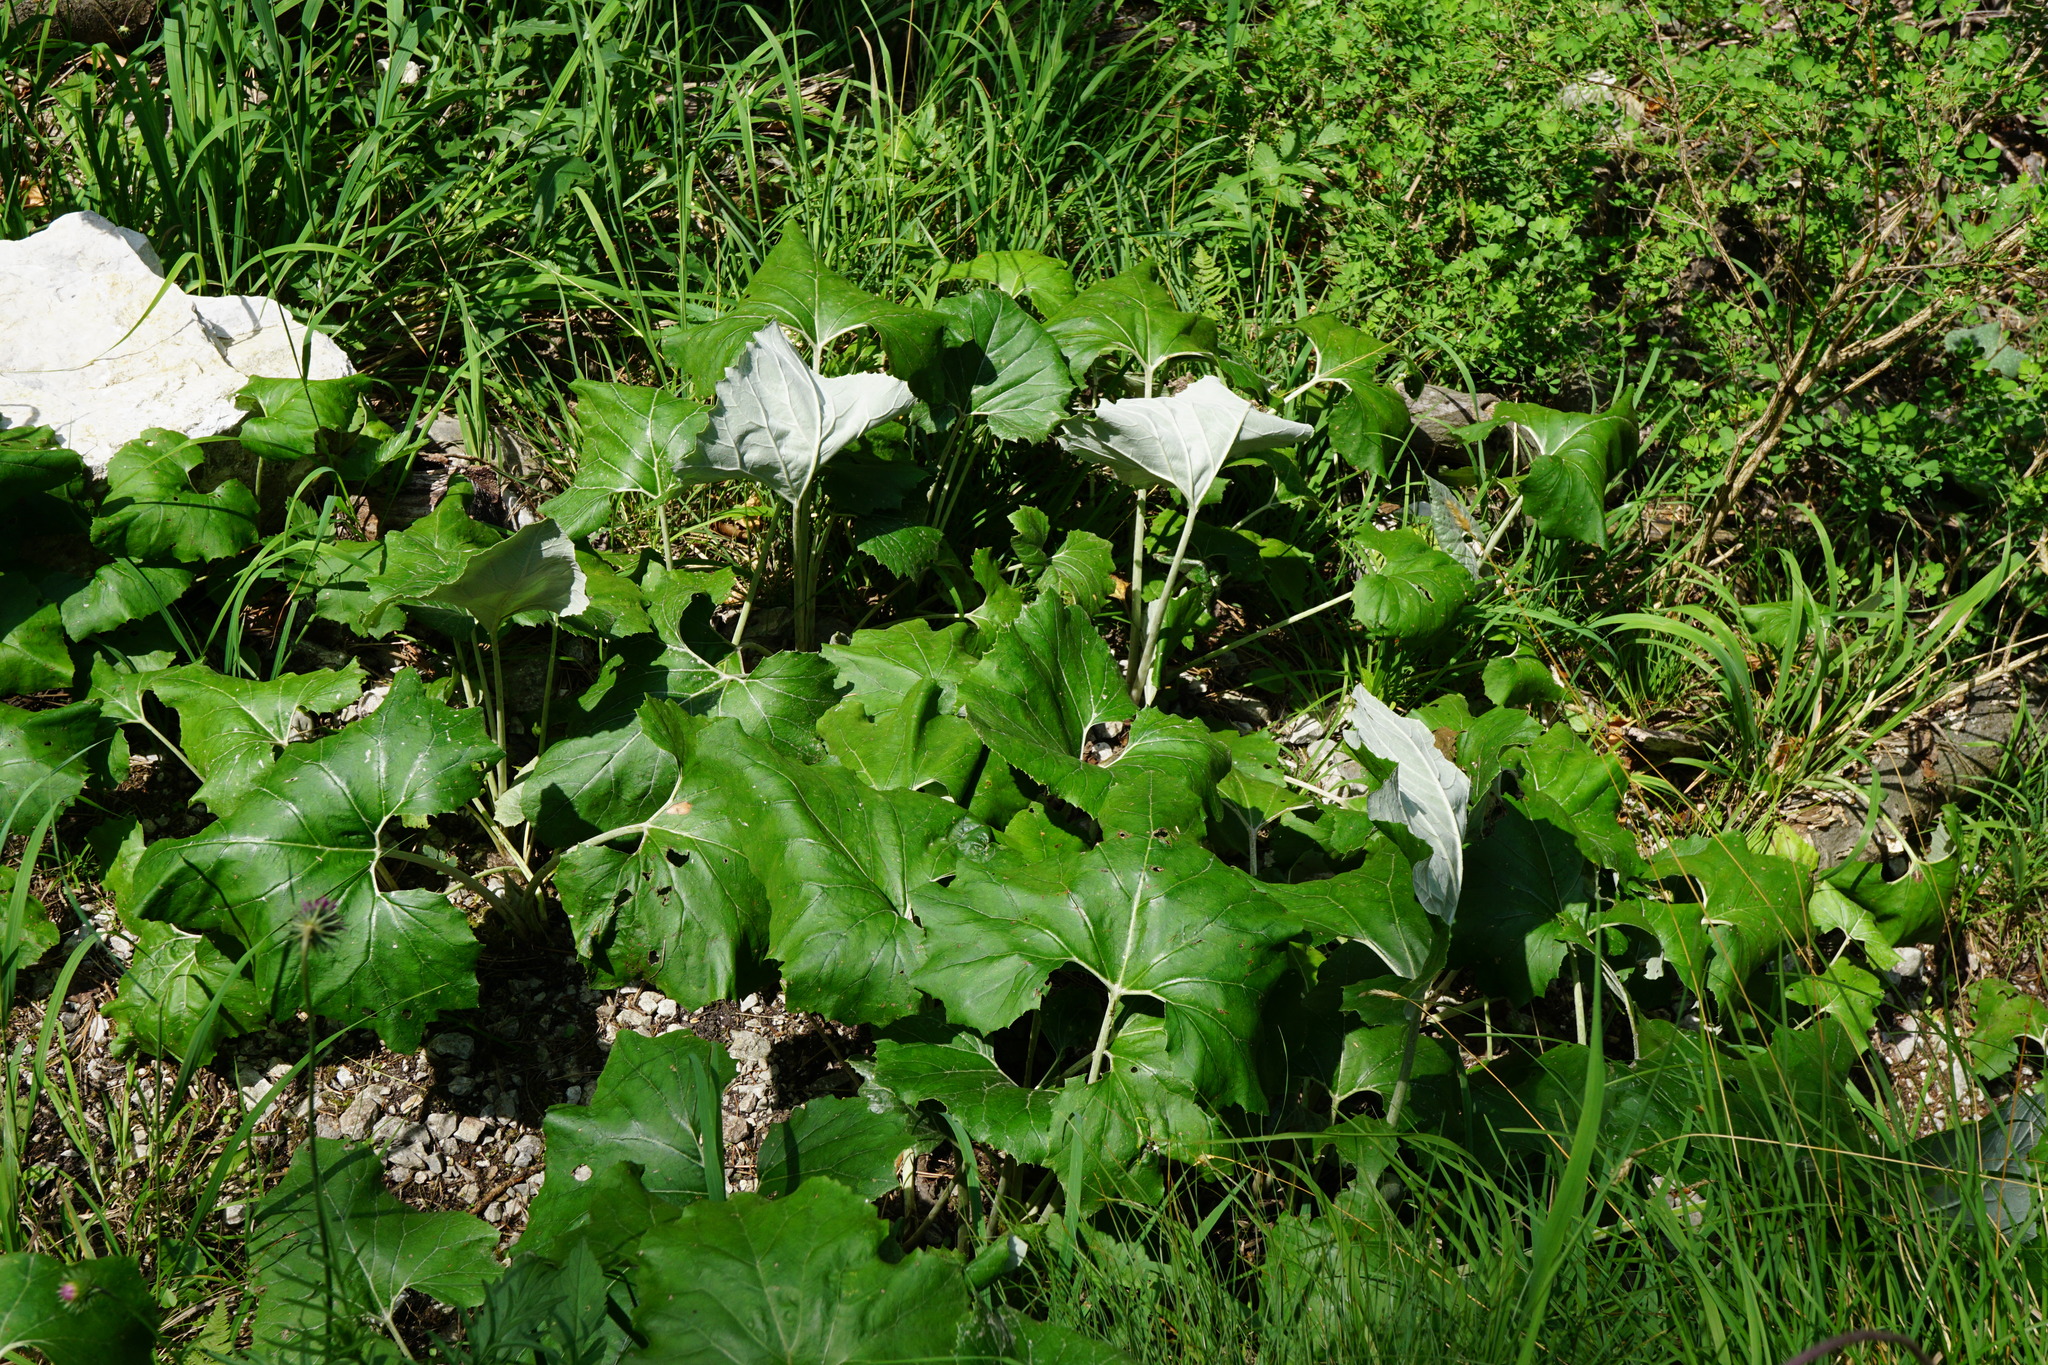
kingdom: Plantae
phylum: Tracheophyta
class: Magnoliopsida
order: Asterales
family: Asteraceae
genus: Petasites
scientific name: Petasites paradoxus
